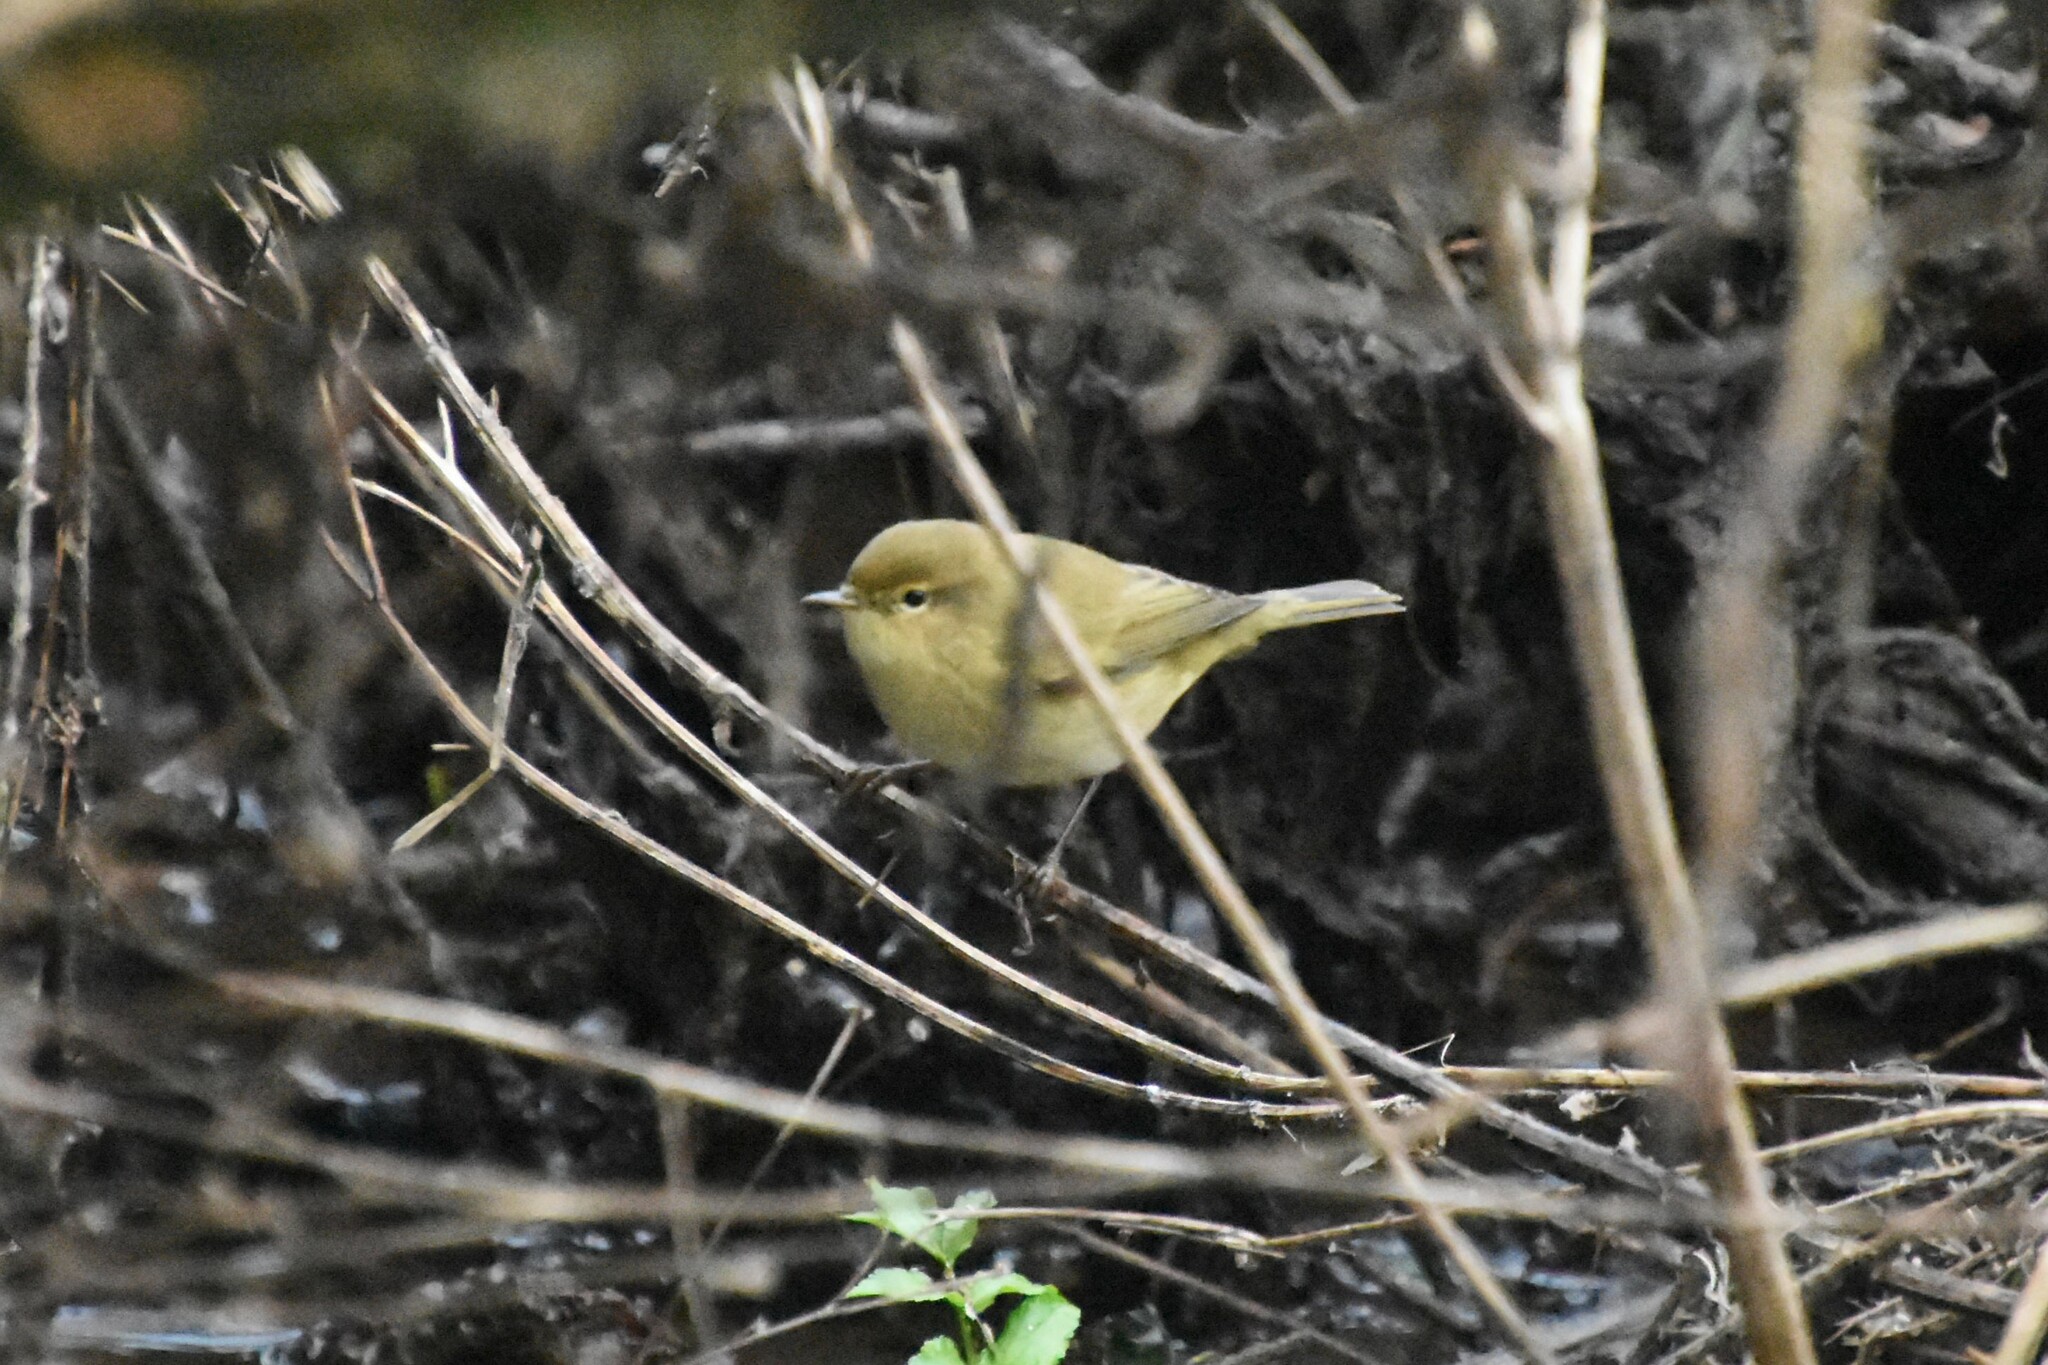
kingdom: Animalia
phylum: Chordata
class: Aves
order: Passeriformes
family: Phylloscopidae
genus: Phylloscopus
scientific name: Phylloscopus collybita
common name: Common chiffchaff
